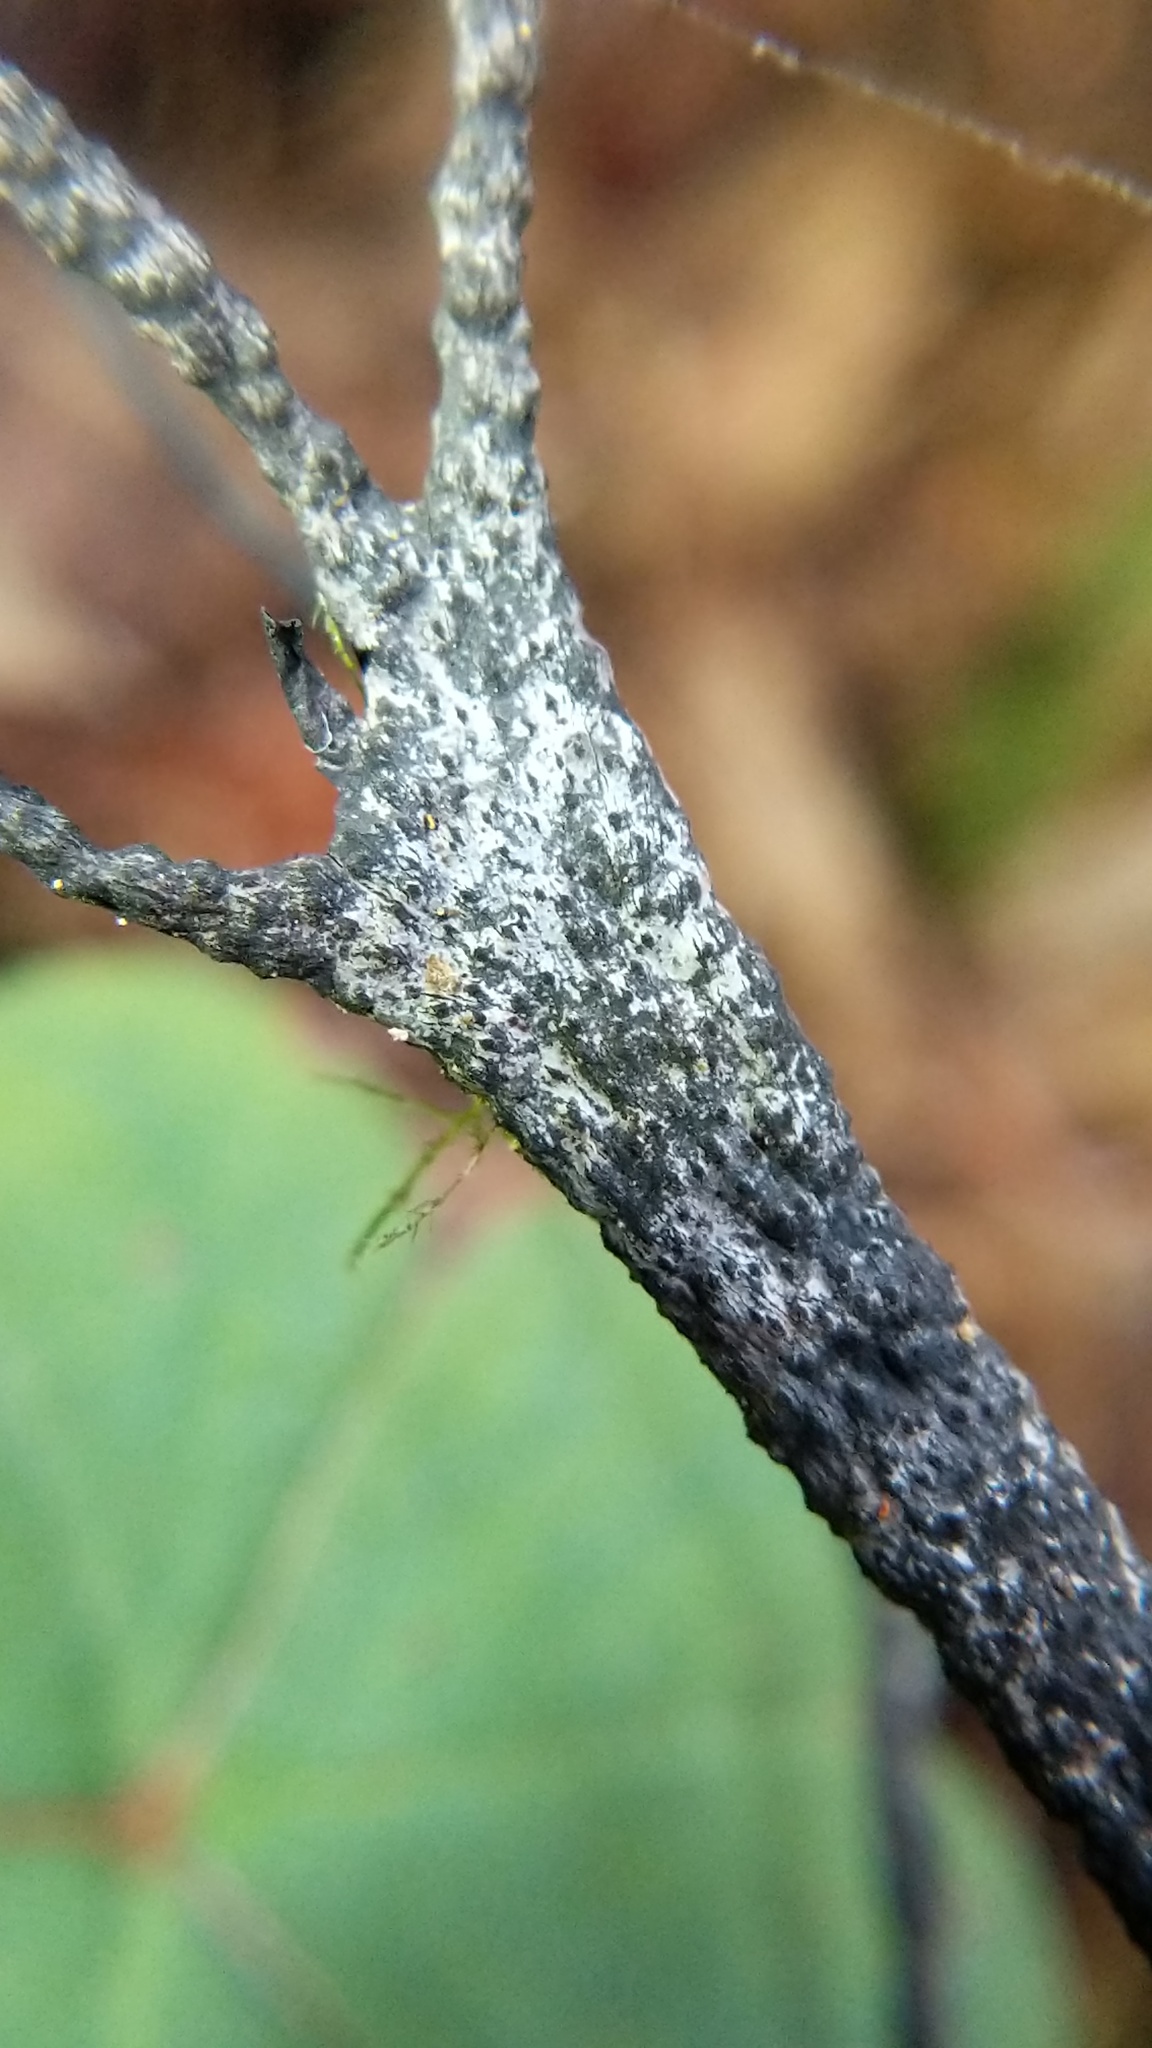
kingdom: Fungi
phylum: Ascomycota
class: Sordariomycetes
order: Xylariales
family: Xylariaceae
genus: Xylaria
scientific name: Xylaria hypoxylon
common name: Candle-snuff fungus
